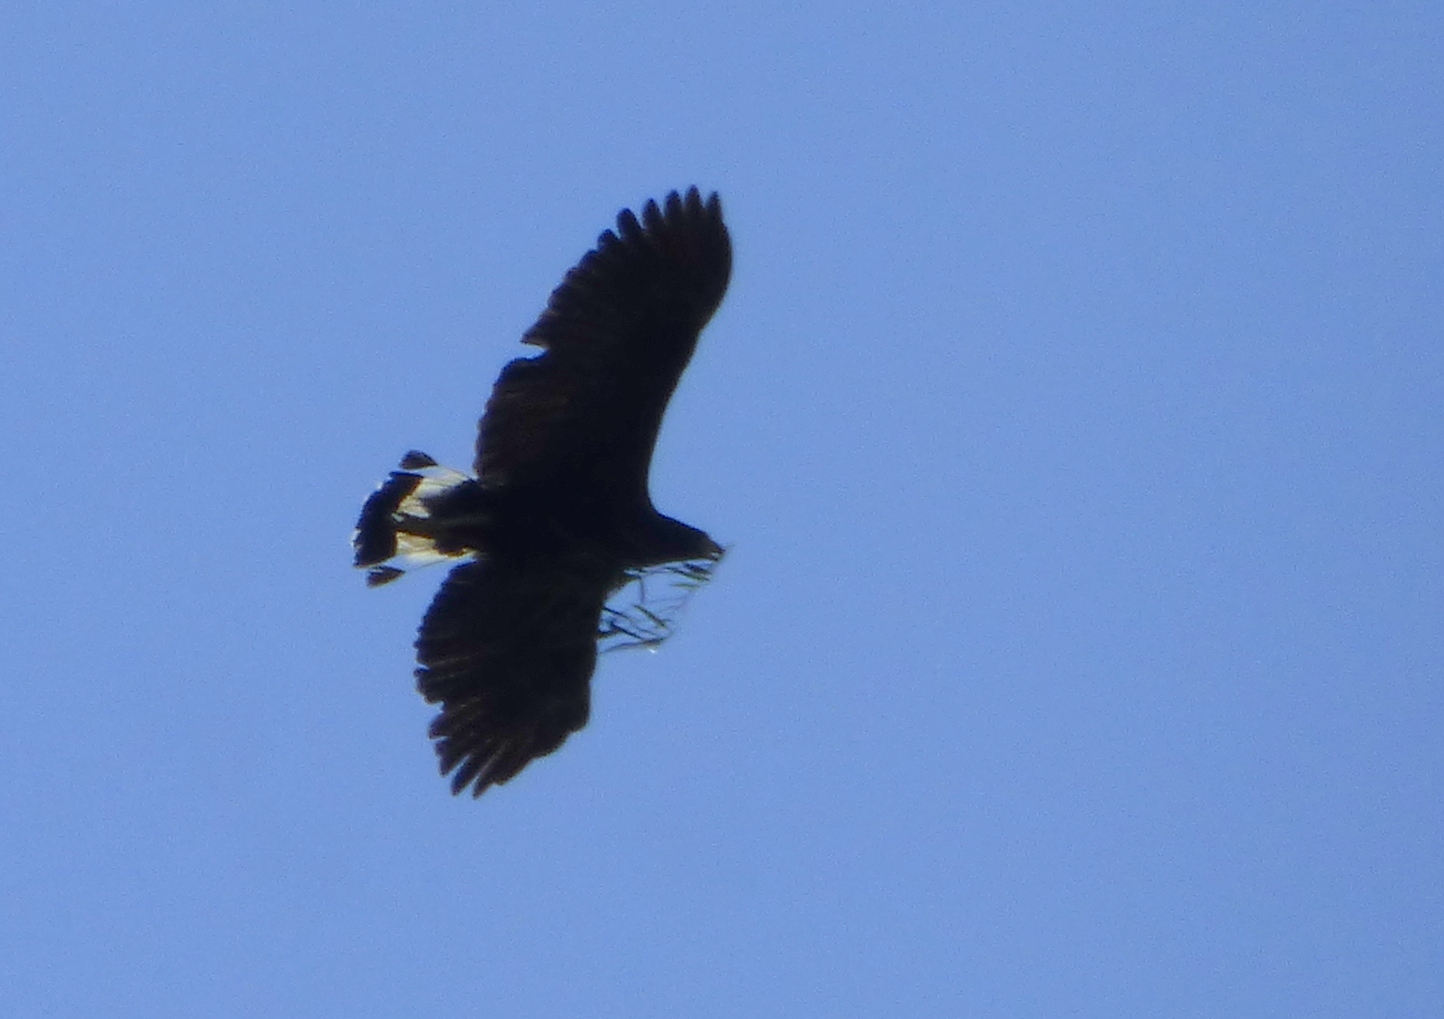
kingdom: Animalia
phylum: Chordata
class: Aves
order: Accipitriformes
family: Accipitridae
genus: Buteogallus
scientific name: Buteogallus urubitinga
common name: Great black hawk
